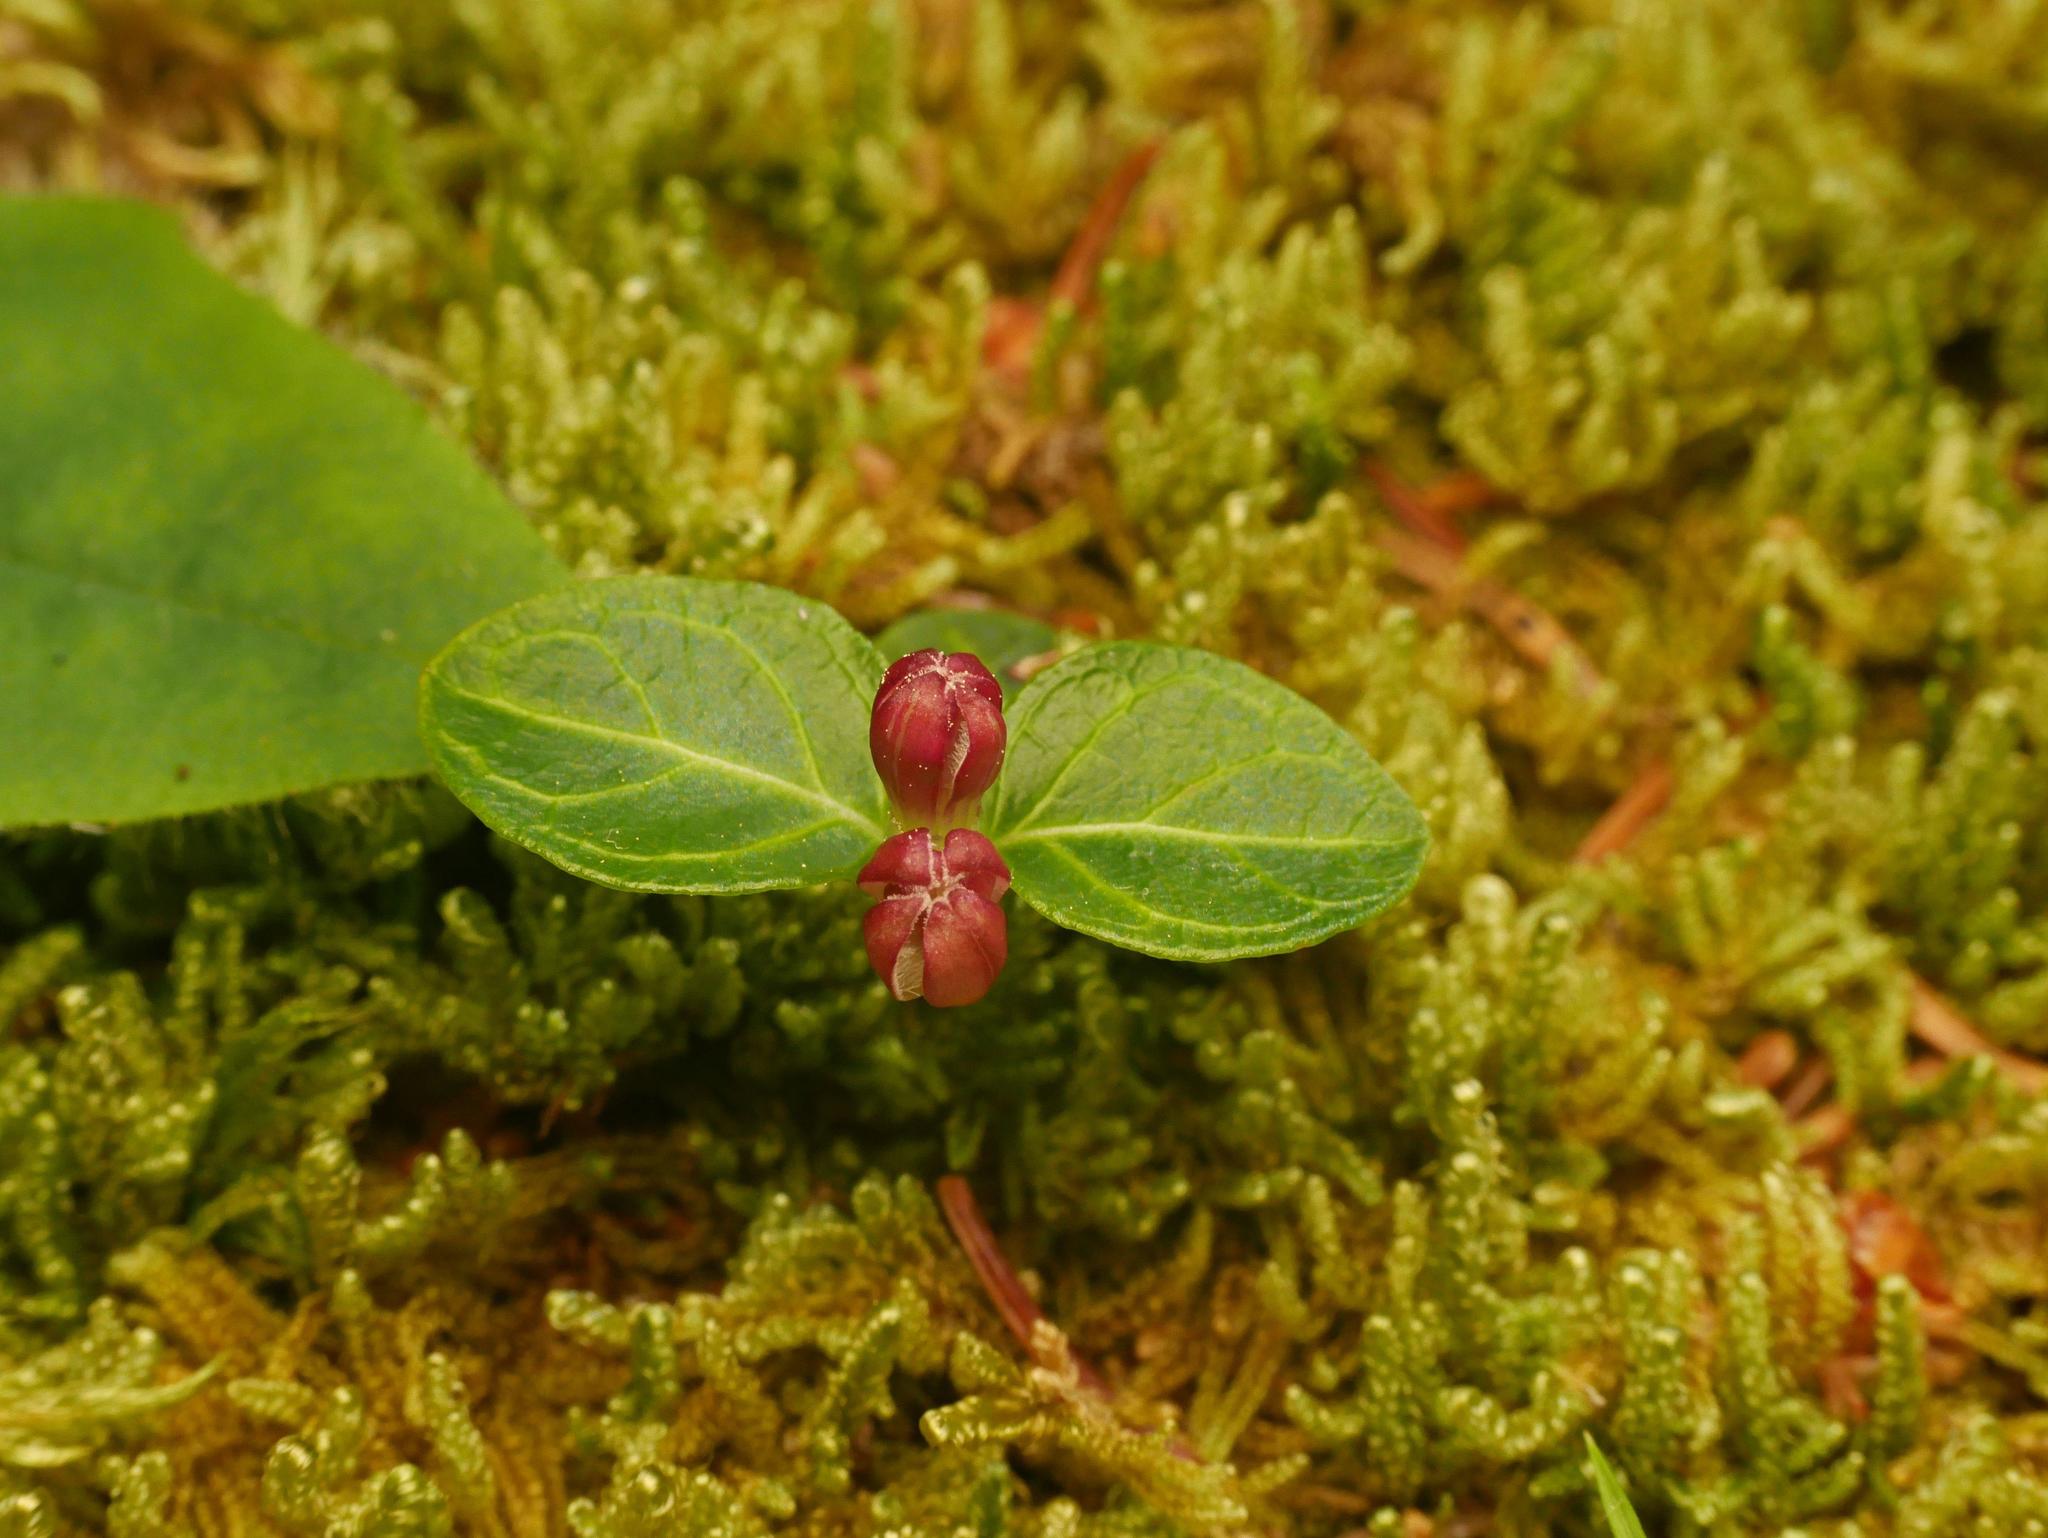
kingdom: Plantae
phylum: Tracheophyta
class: Magnoliopsida
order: Gentianales
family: Rubiaceae
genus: Mitchella
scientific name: Mitchella repens
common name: Partridge-berry
